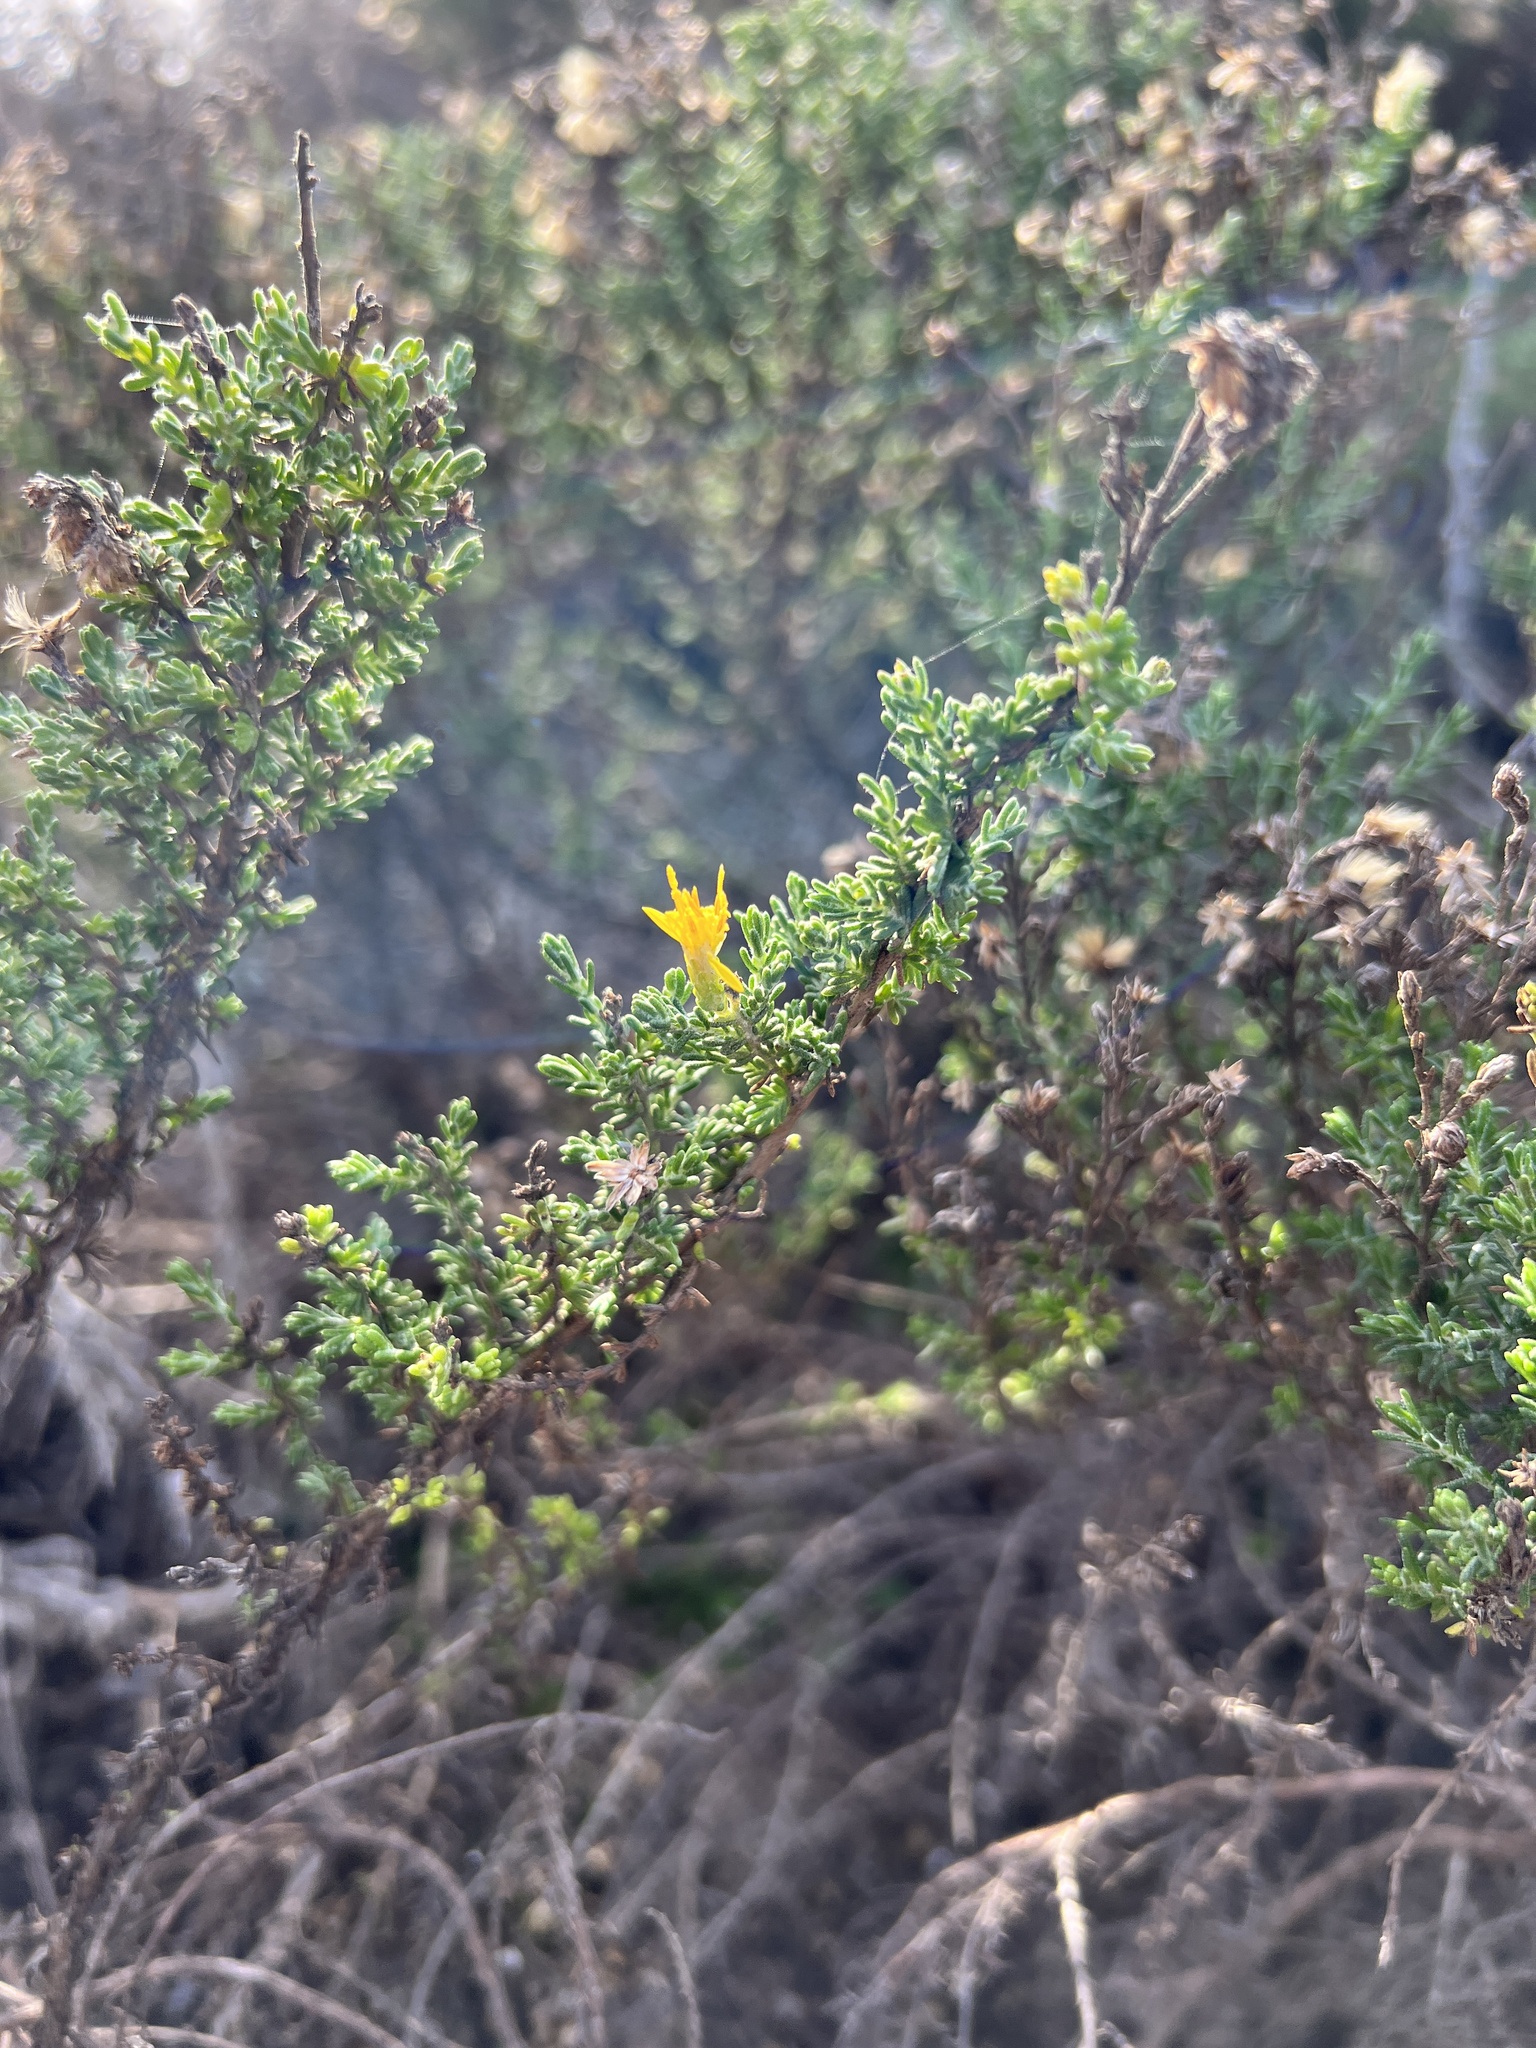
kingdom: Plantae
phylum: Tracheophyta
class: Magnoliopsida
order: Asterales
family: Asteraceae
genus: Ericameria
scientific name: Ericameria ericoides
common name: California goldenbush
